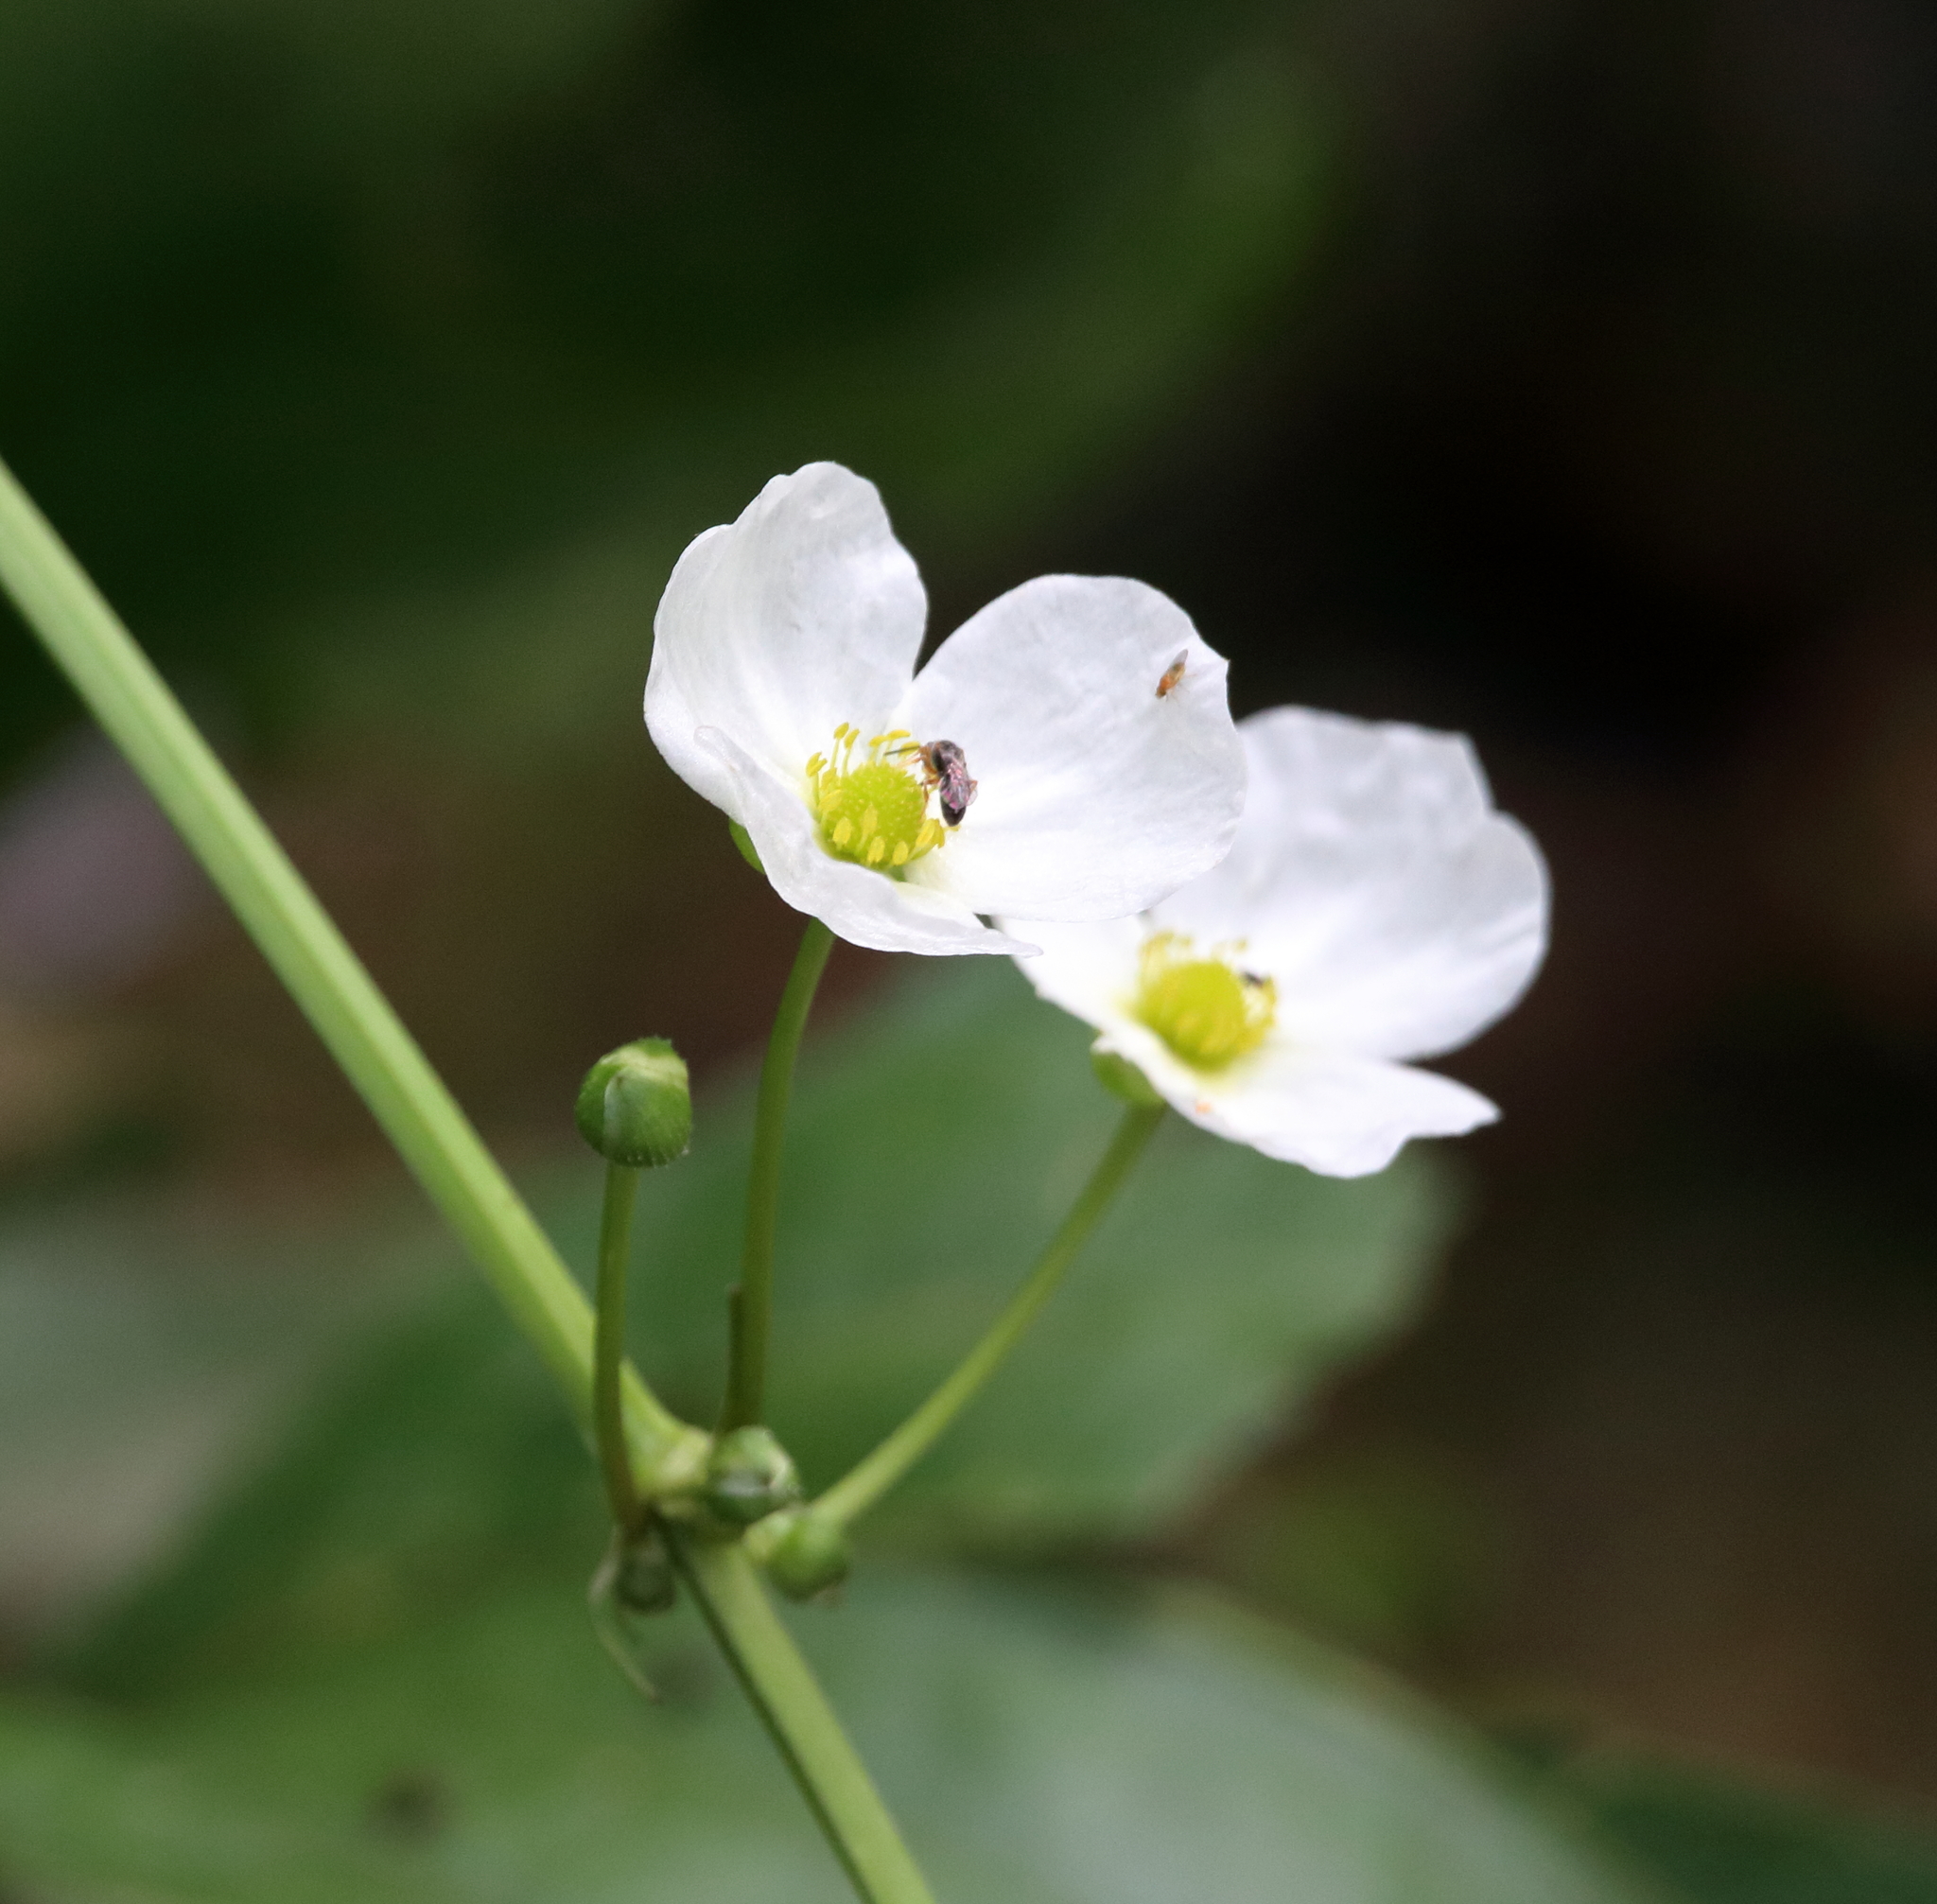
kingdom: Plantae
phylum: Tracheophyta
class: Liliopsida
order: Alismatales
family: Alismataceae
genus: Aquarius
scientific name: Aquarius cordifolius
